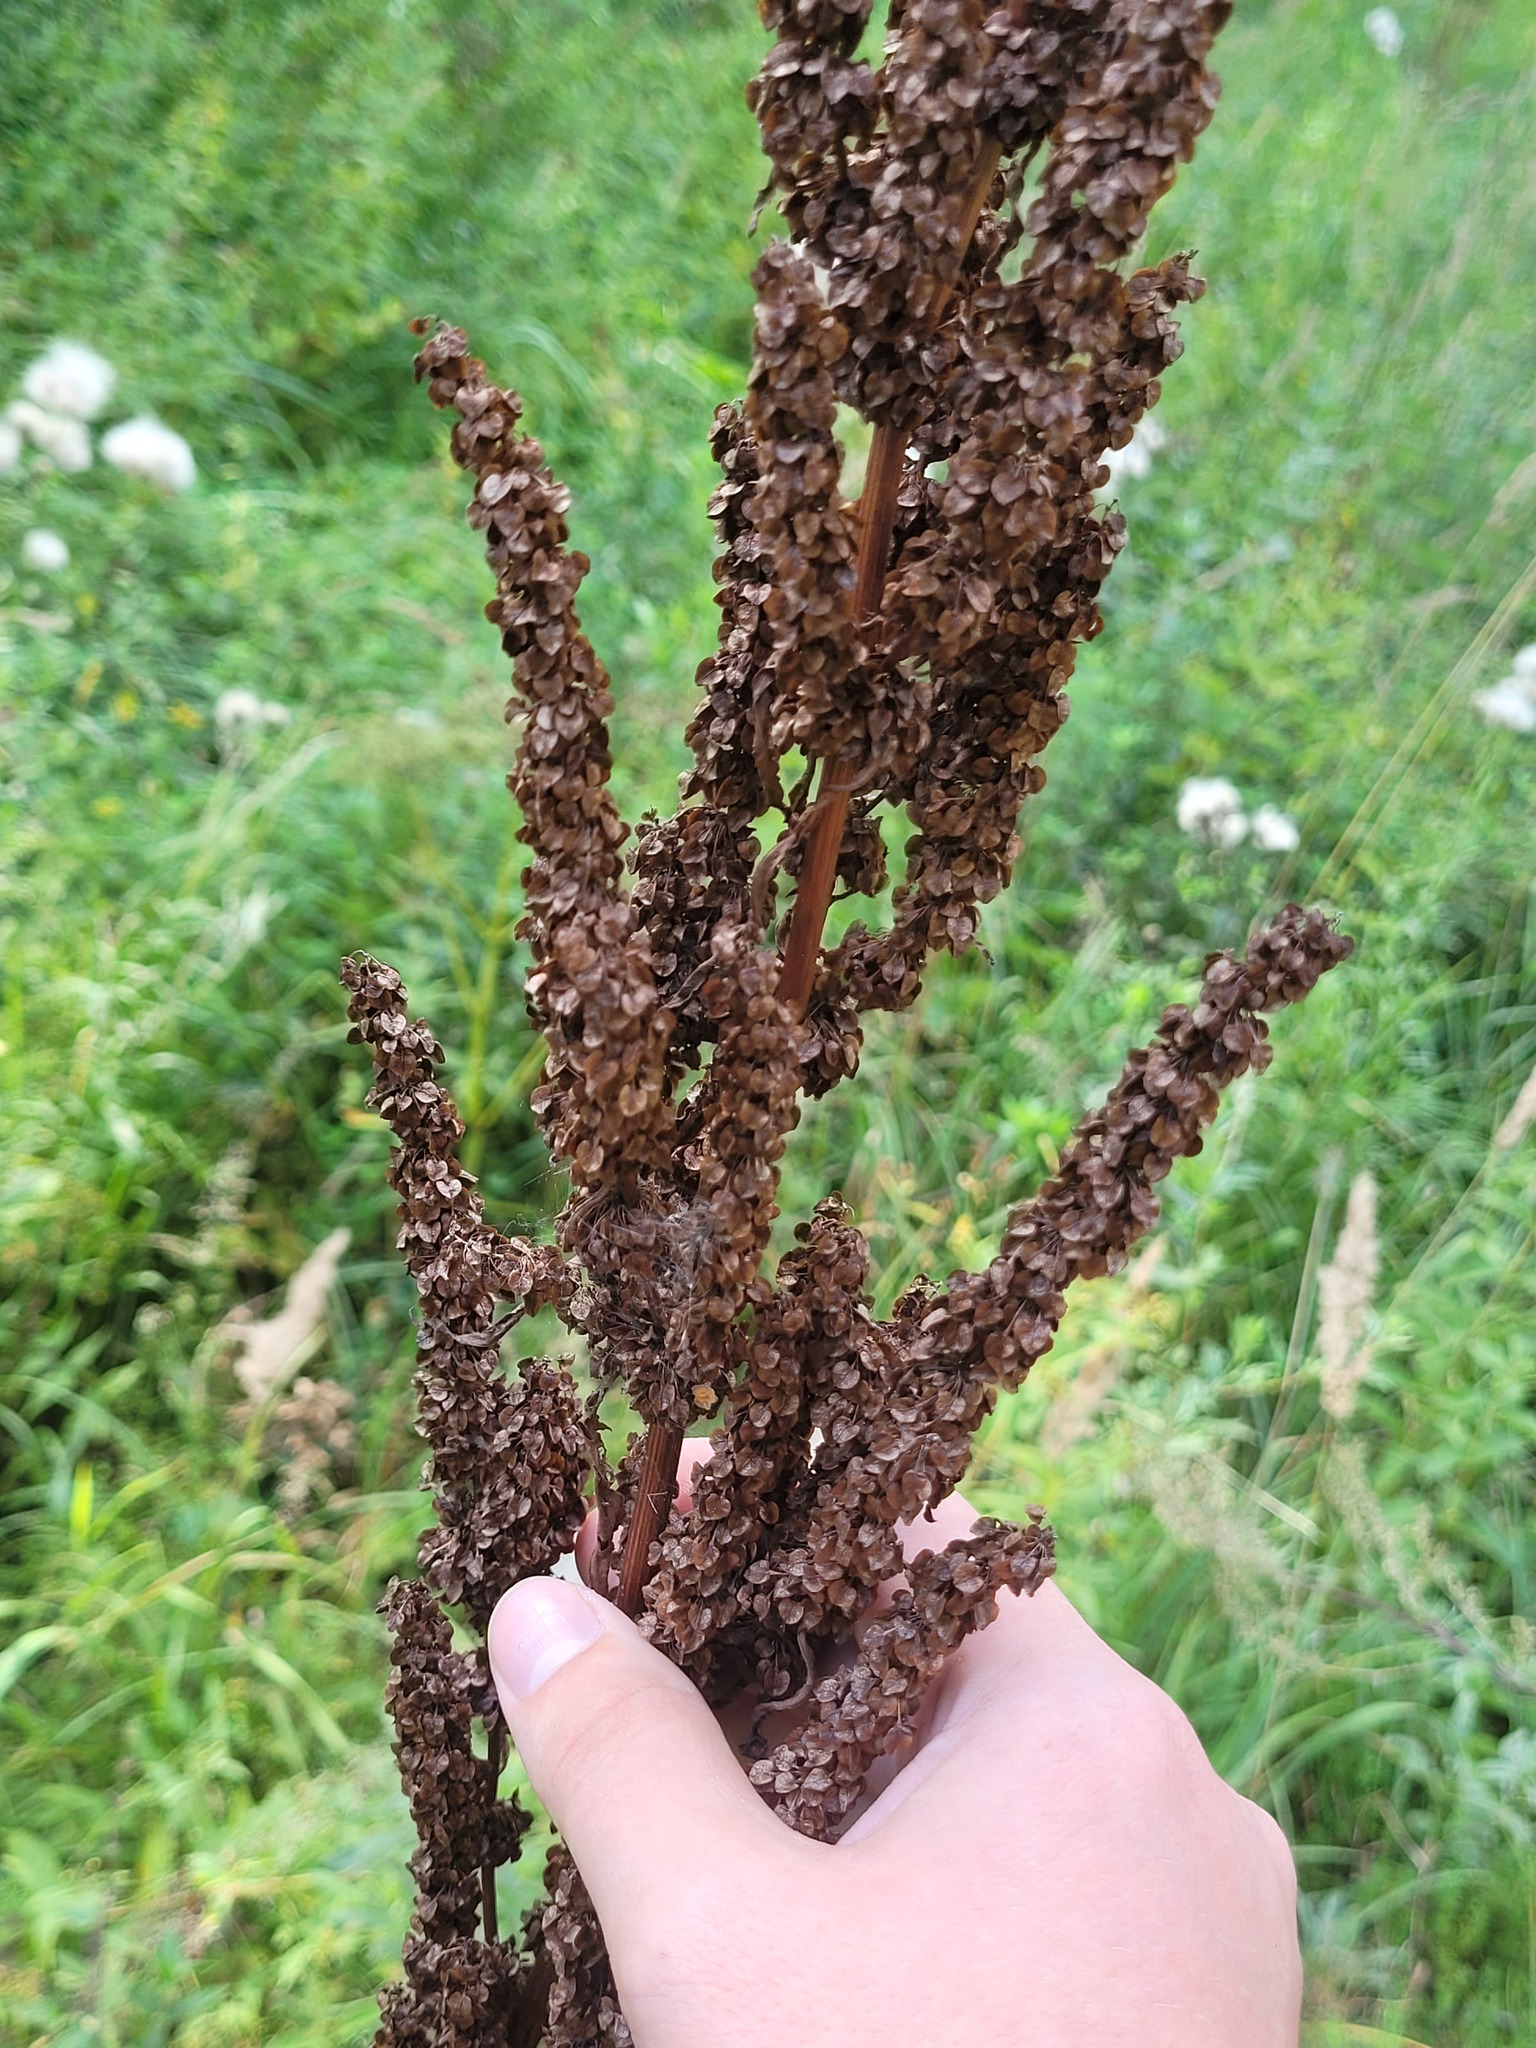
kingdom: Plantae
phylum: Tracheophyta
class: Magnoliopsida
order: Caryophyllales
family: Polygonaceae
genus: Rumex
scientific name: Rumex pseudonatronatus
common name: Field dock
